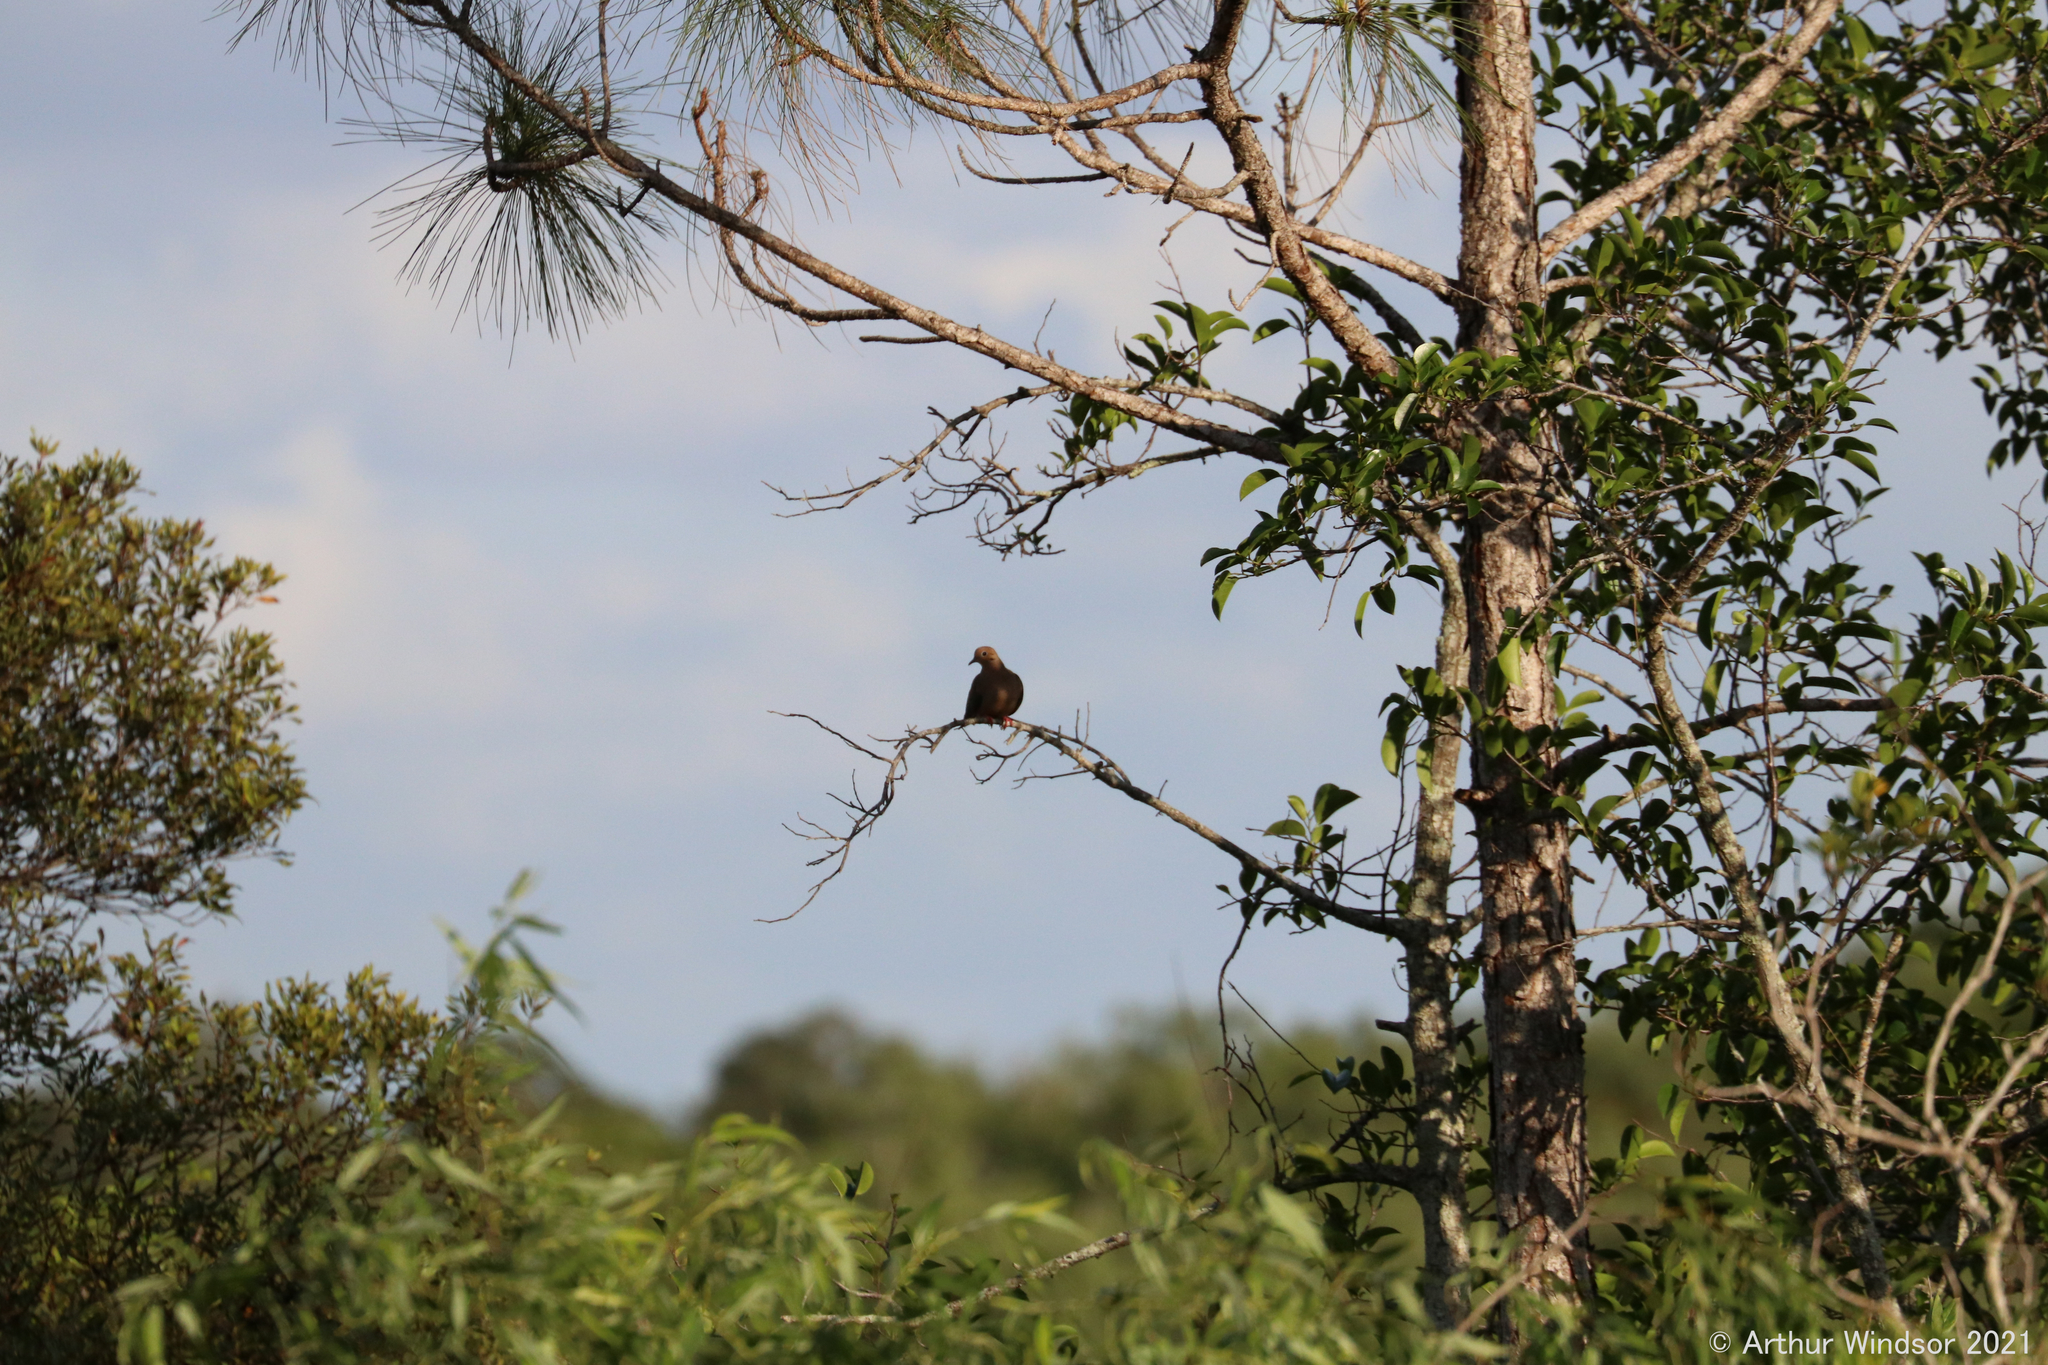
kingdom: Animalia
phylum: Chordata
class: Aves
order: Columbiformes
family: Columbidae
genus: Zenaida
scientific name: Zenaida macroura
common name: Mourning dove
